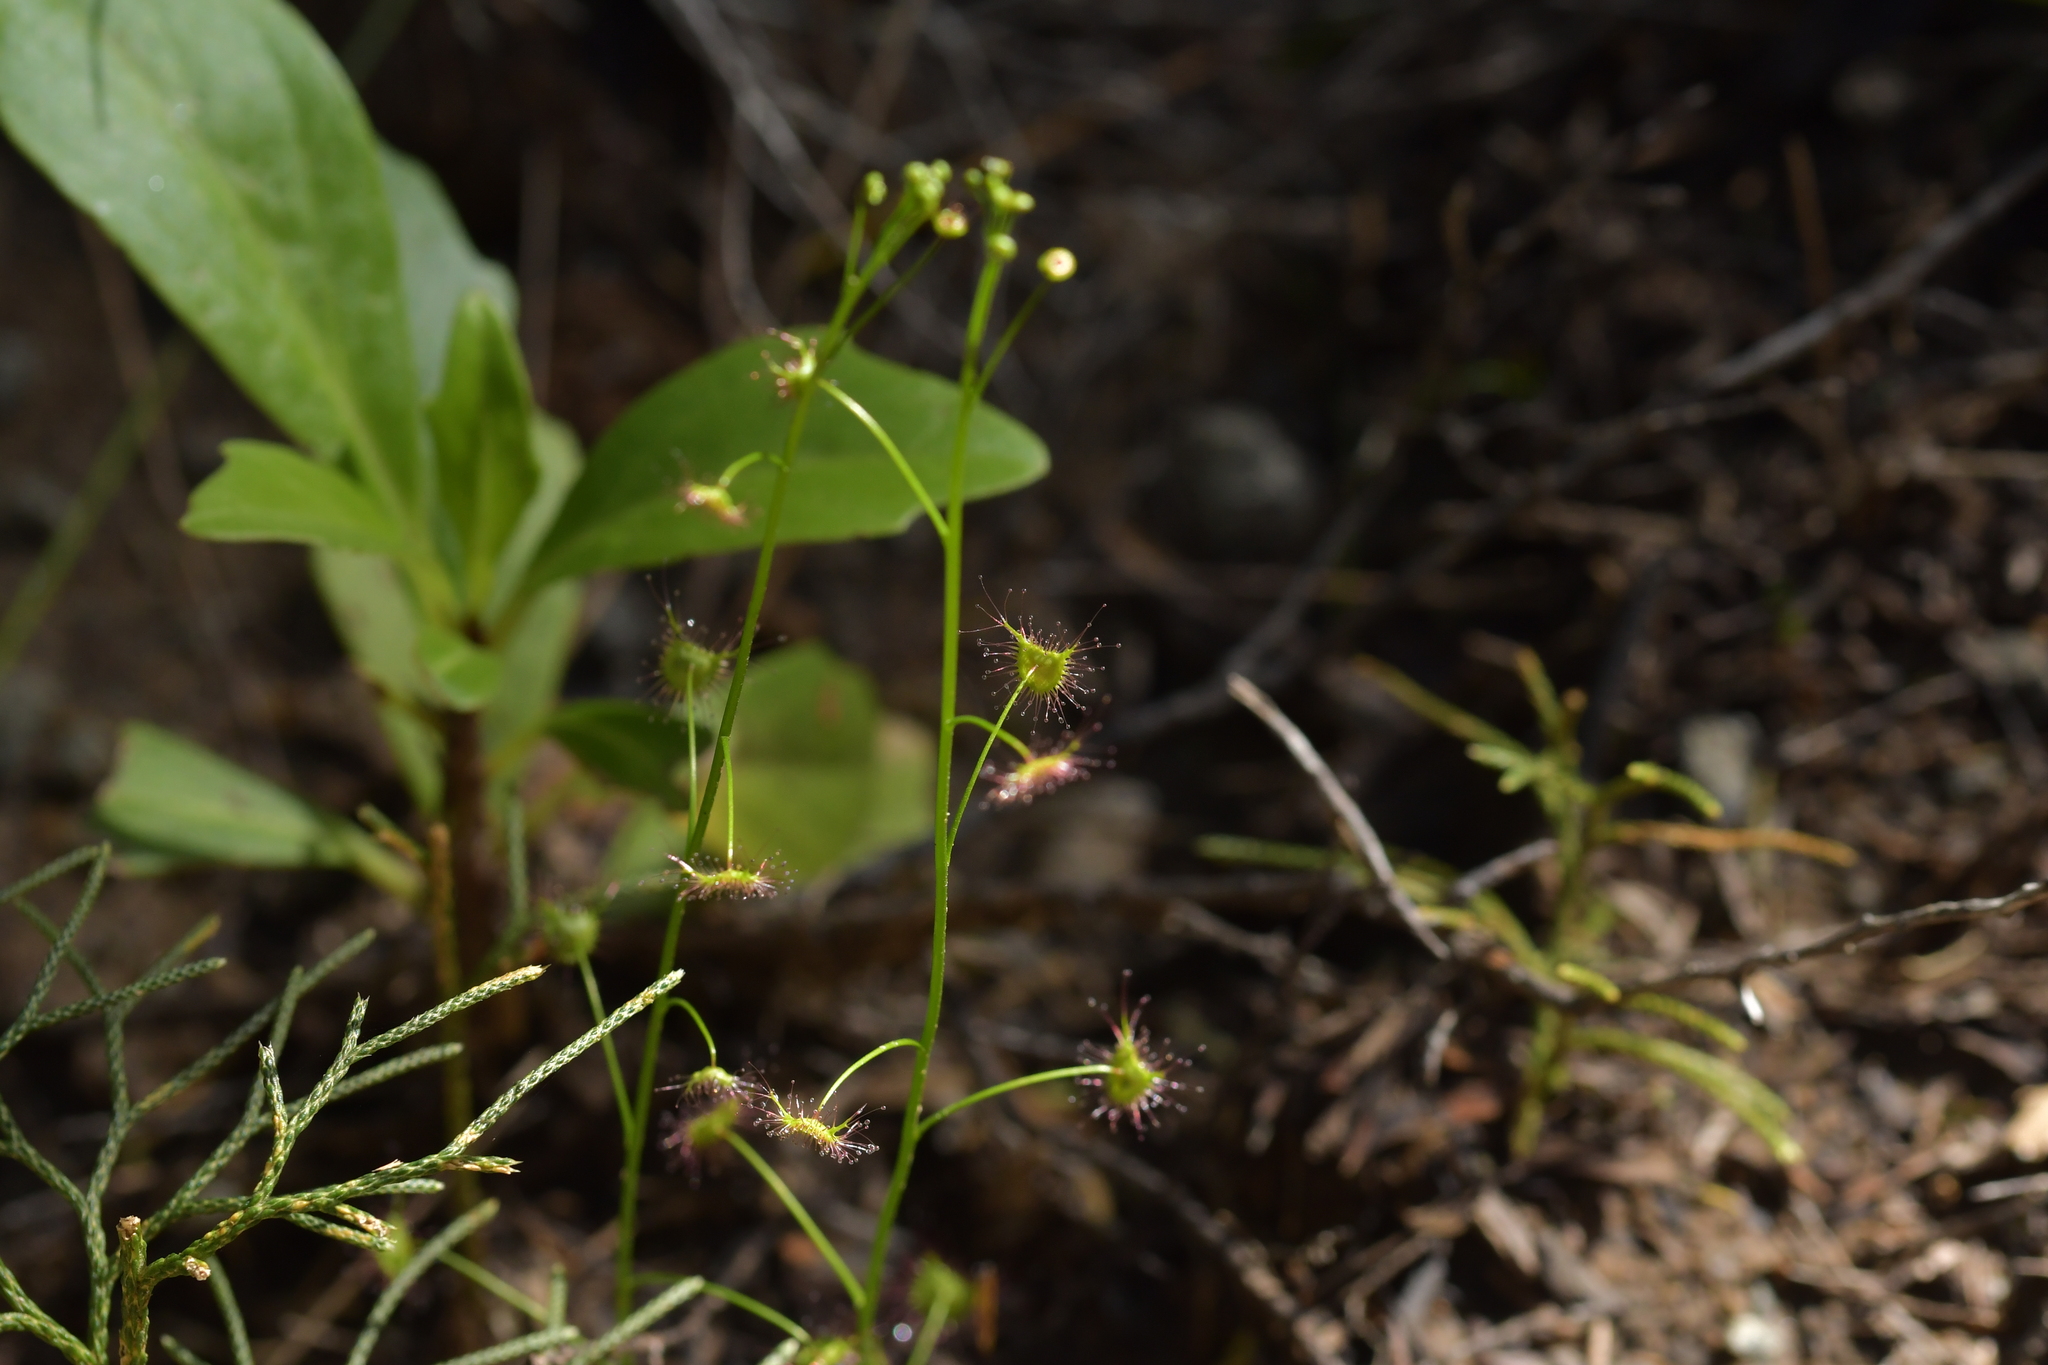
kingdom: Plantae
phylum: Tracheophyta
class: Magnoliopsida
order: Caryophyllales
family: Droseraceae
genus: Drosera
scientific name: Drosera peltata
